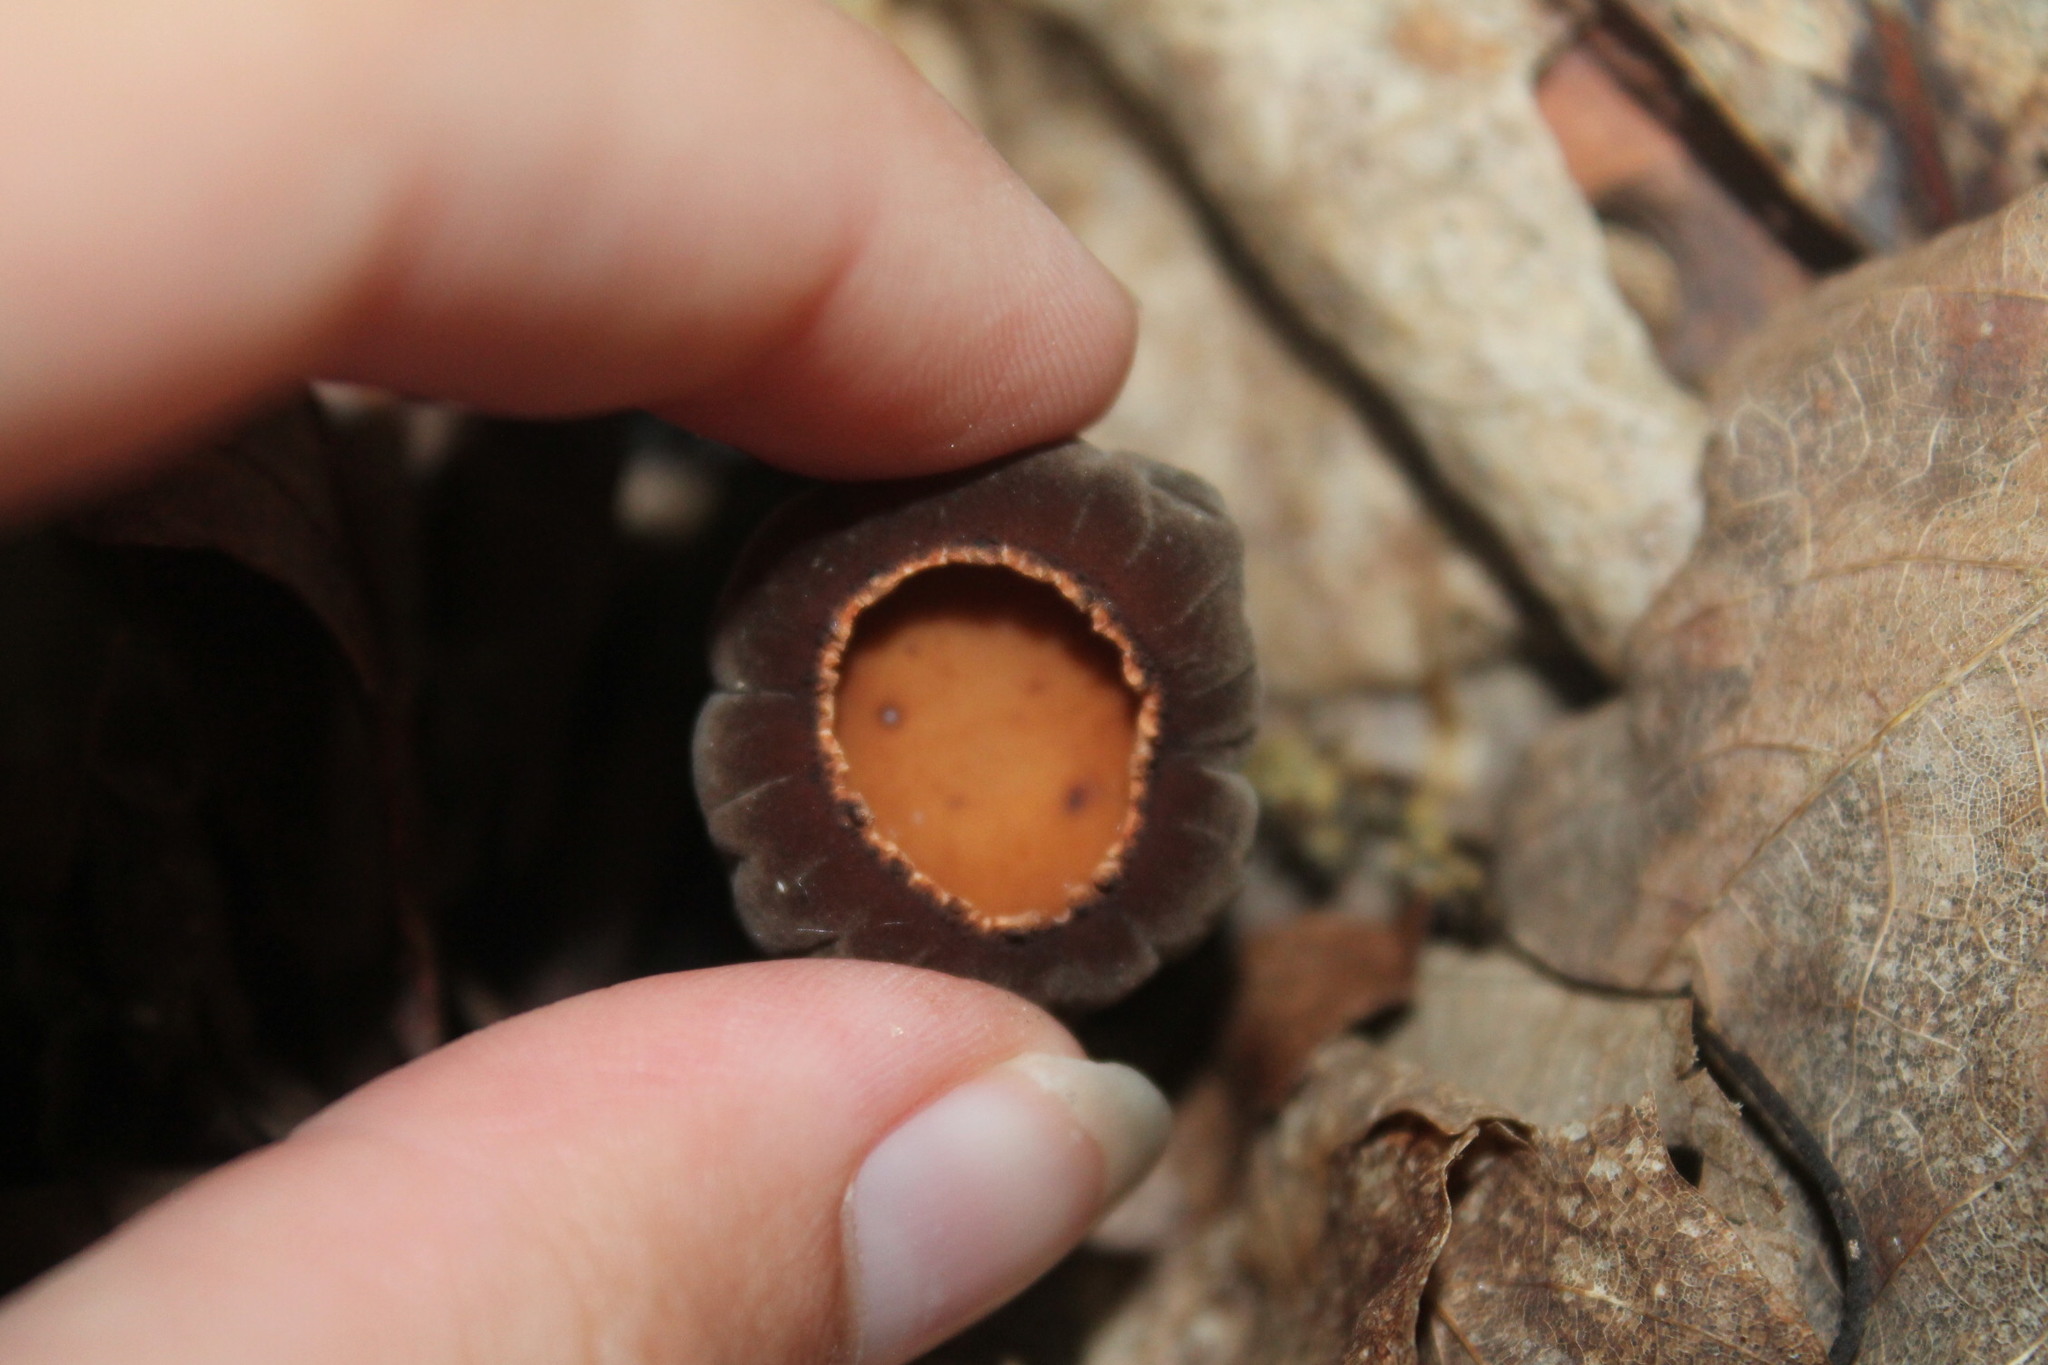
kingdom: Fungi
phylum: Ascomycota
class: Pezizomycetes
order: Pezizales
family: Sarcosomataceae
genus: Galiella
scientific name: Galiella rufa
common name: Hairy rubber cup
